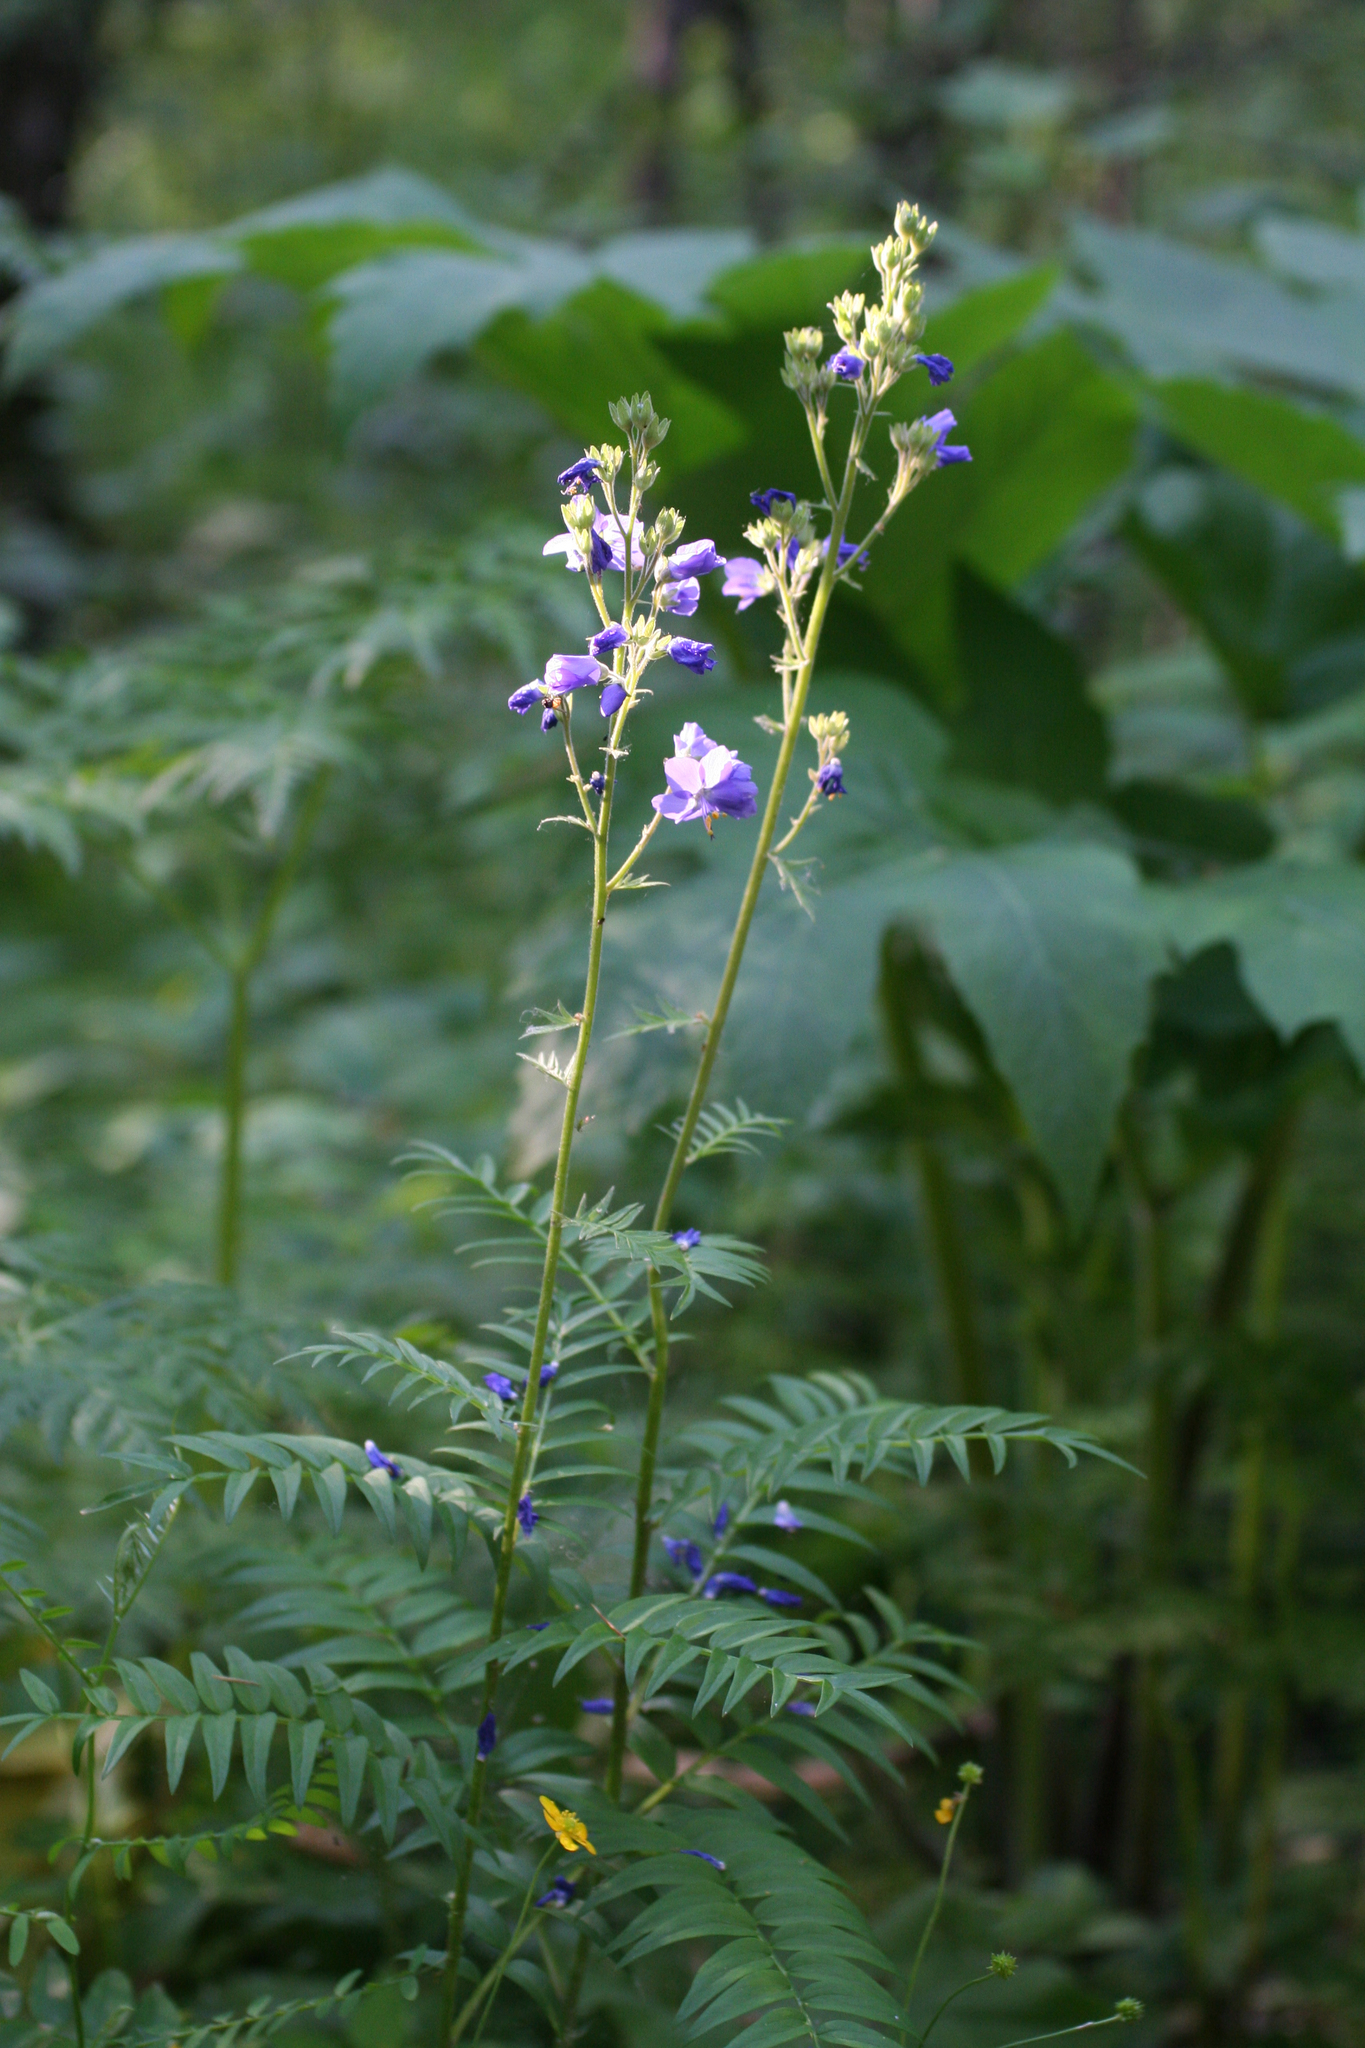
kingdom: Plantae
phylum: Tracheophyta
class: Magnoliopsida
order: Ericales
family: Polemoniaceae
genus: Polemonium
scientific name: Polemonium caeruleum
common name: Jacob's-ladder
